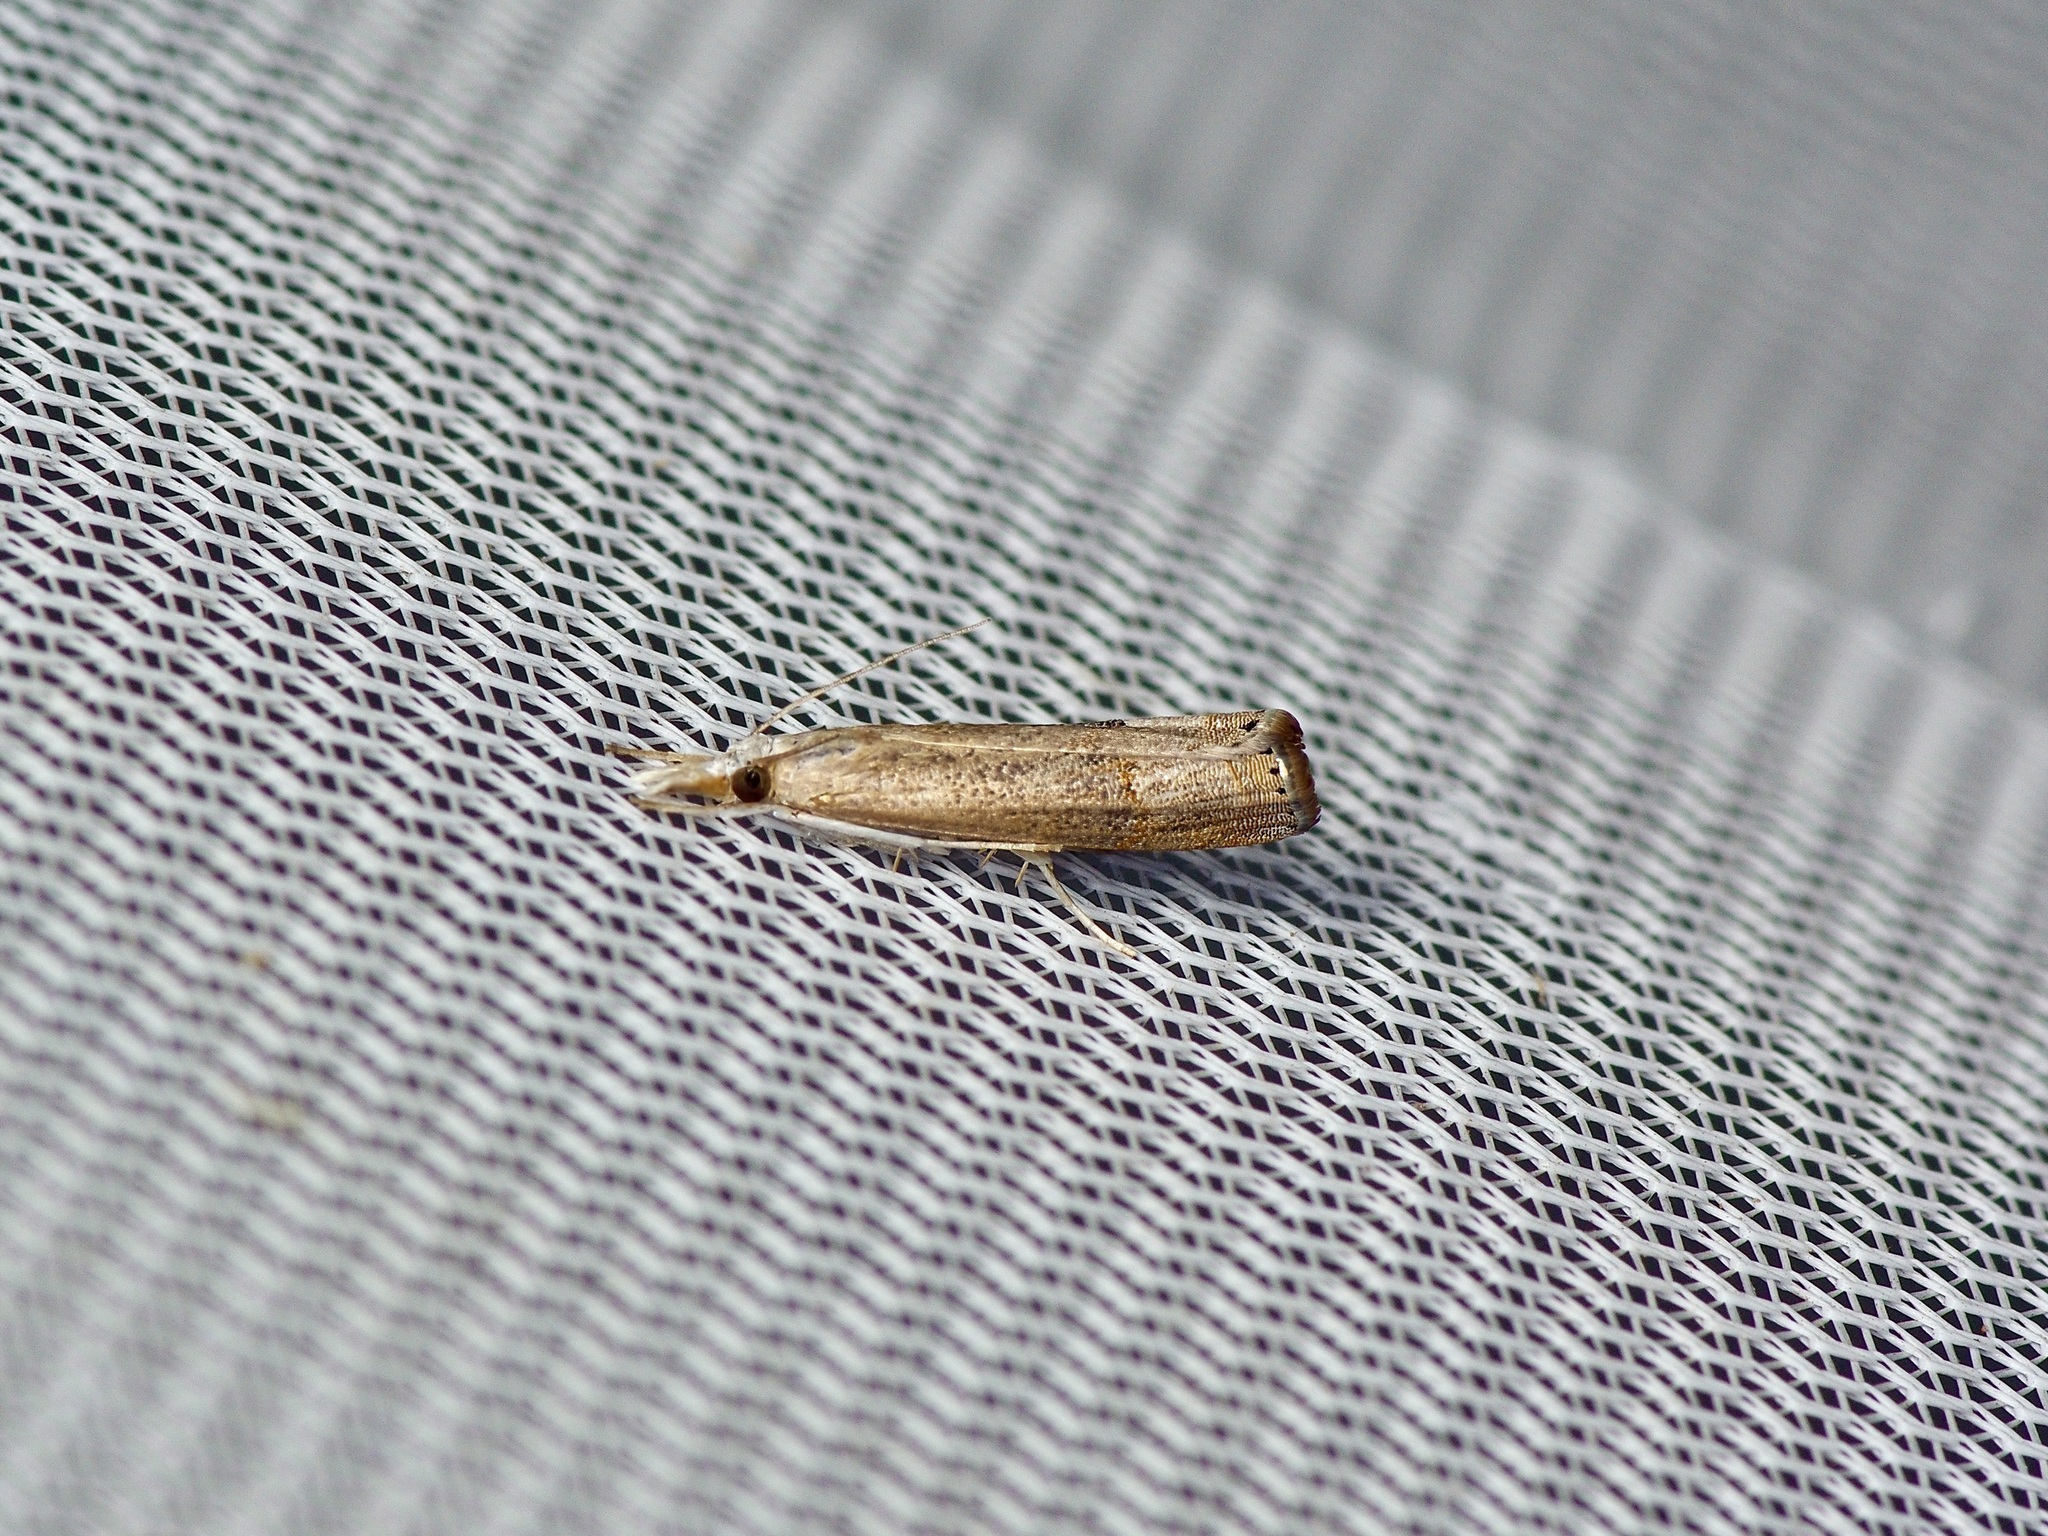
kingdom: Animalia
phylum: Arthropoda
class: Insecta
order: Lepidoptera
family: Crambidae
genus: Parapediasia
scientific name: Parapediasia teterellus
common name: Bluegrass webworm moth
